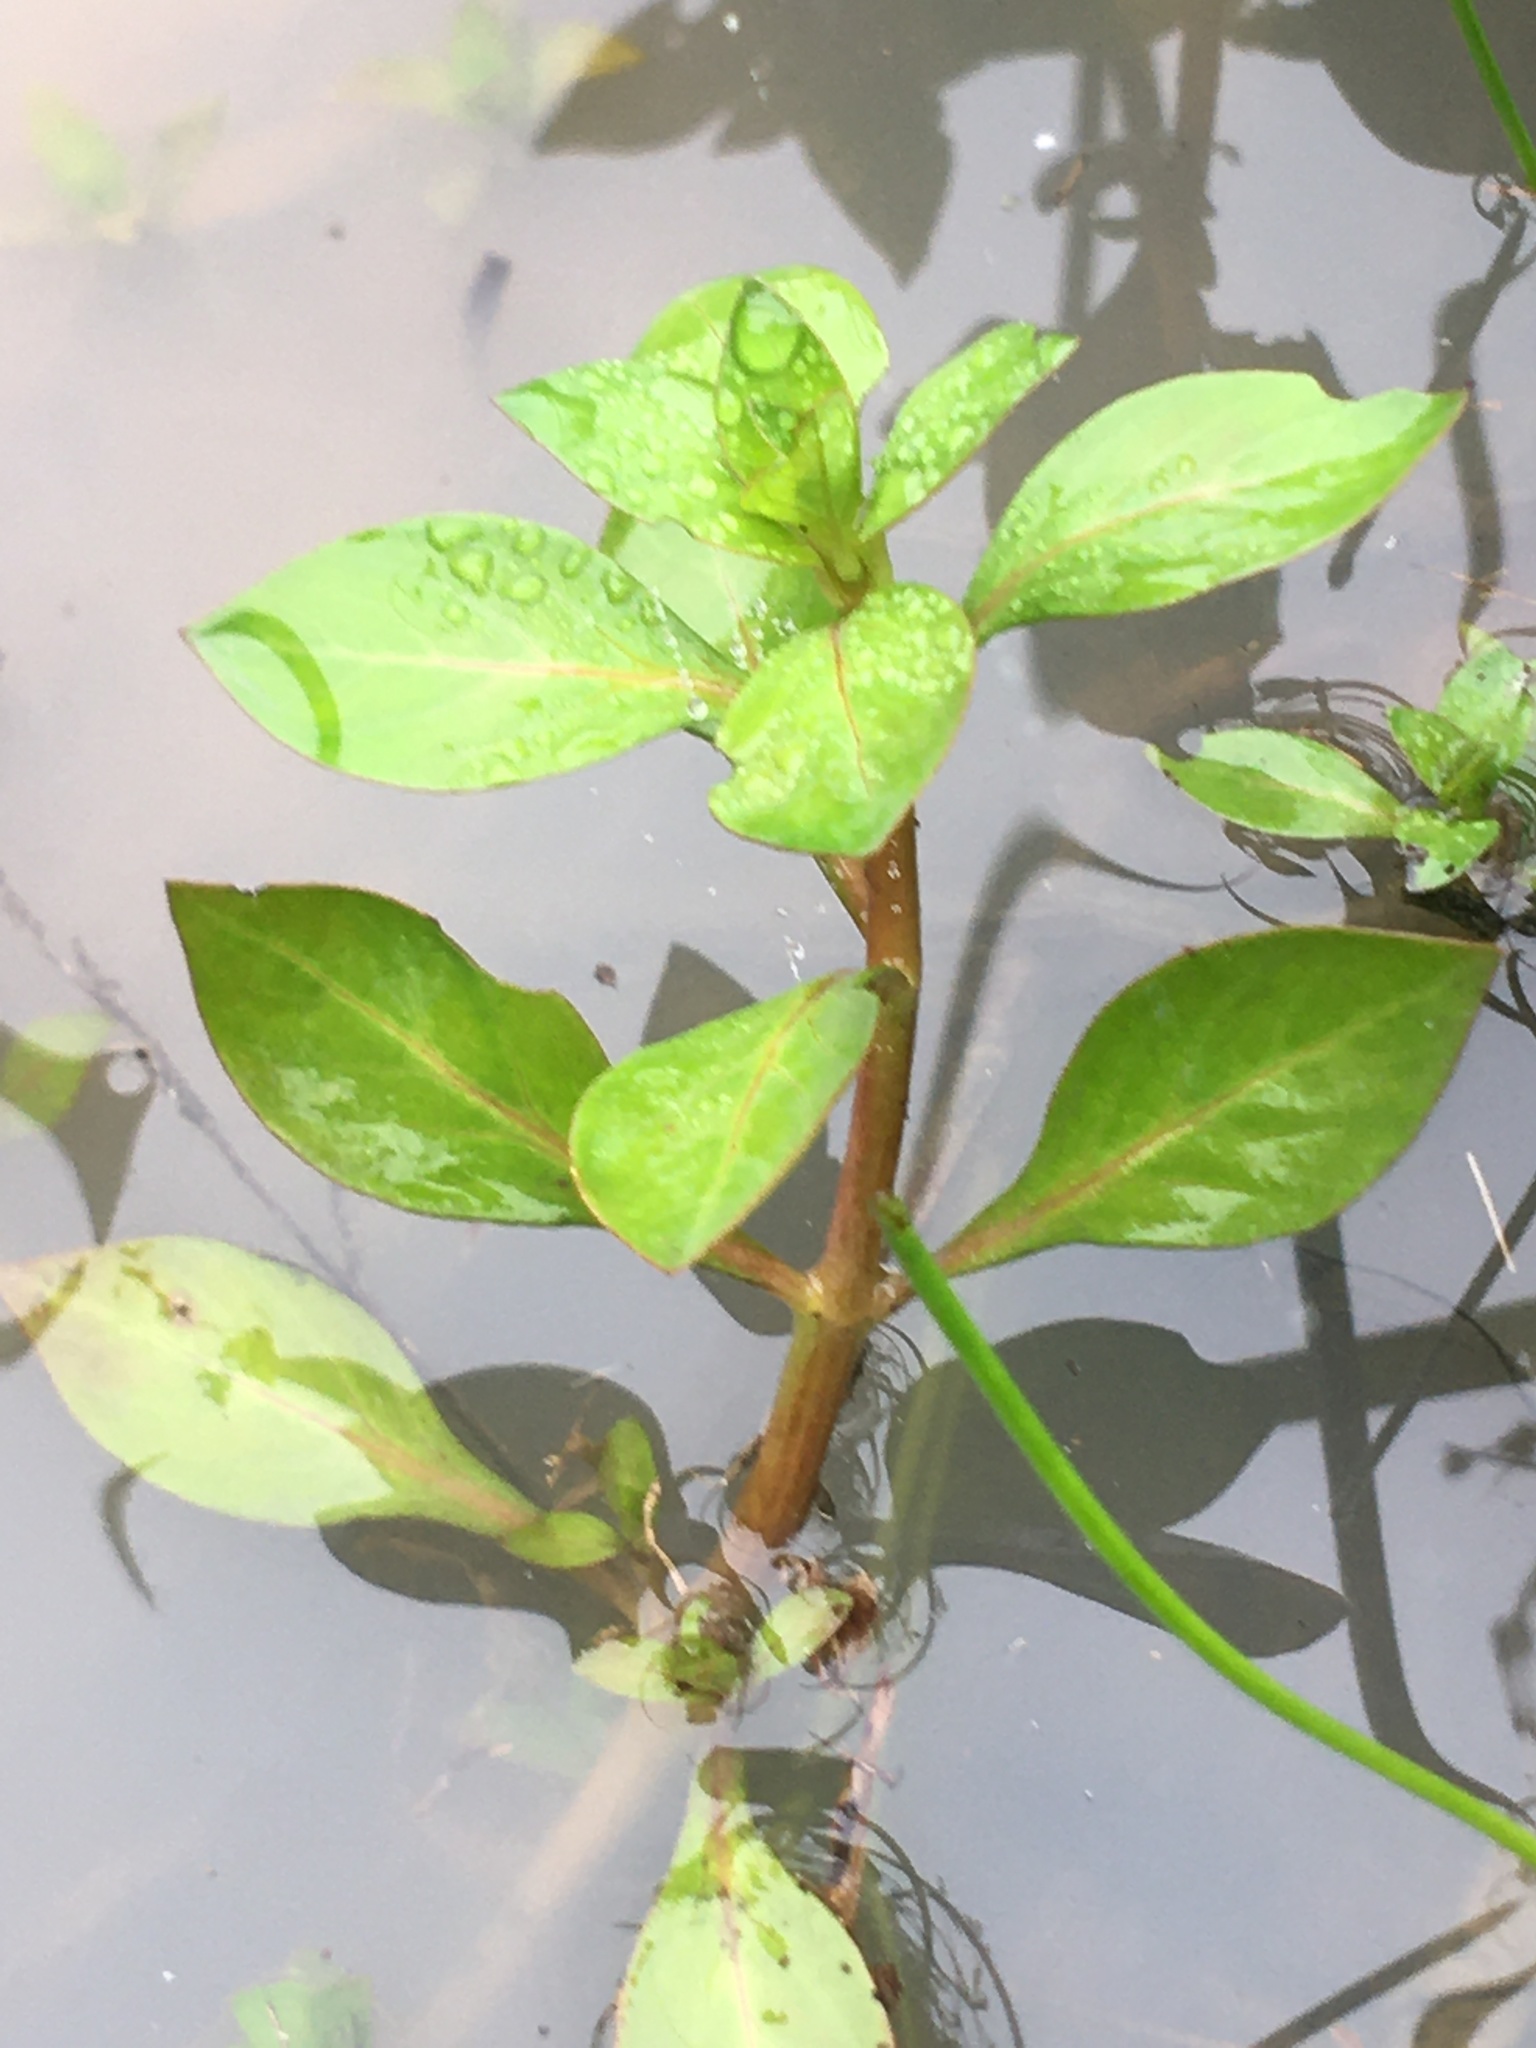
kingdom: Plantae
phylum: Tracheophyta
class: Magnoliopsida
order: Myrtales
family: Onagraceae
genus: Ludwigia
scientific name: Ludwigia palustris
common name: Hampshire-purslane
